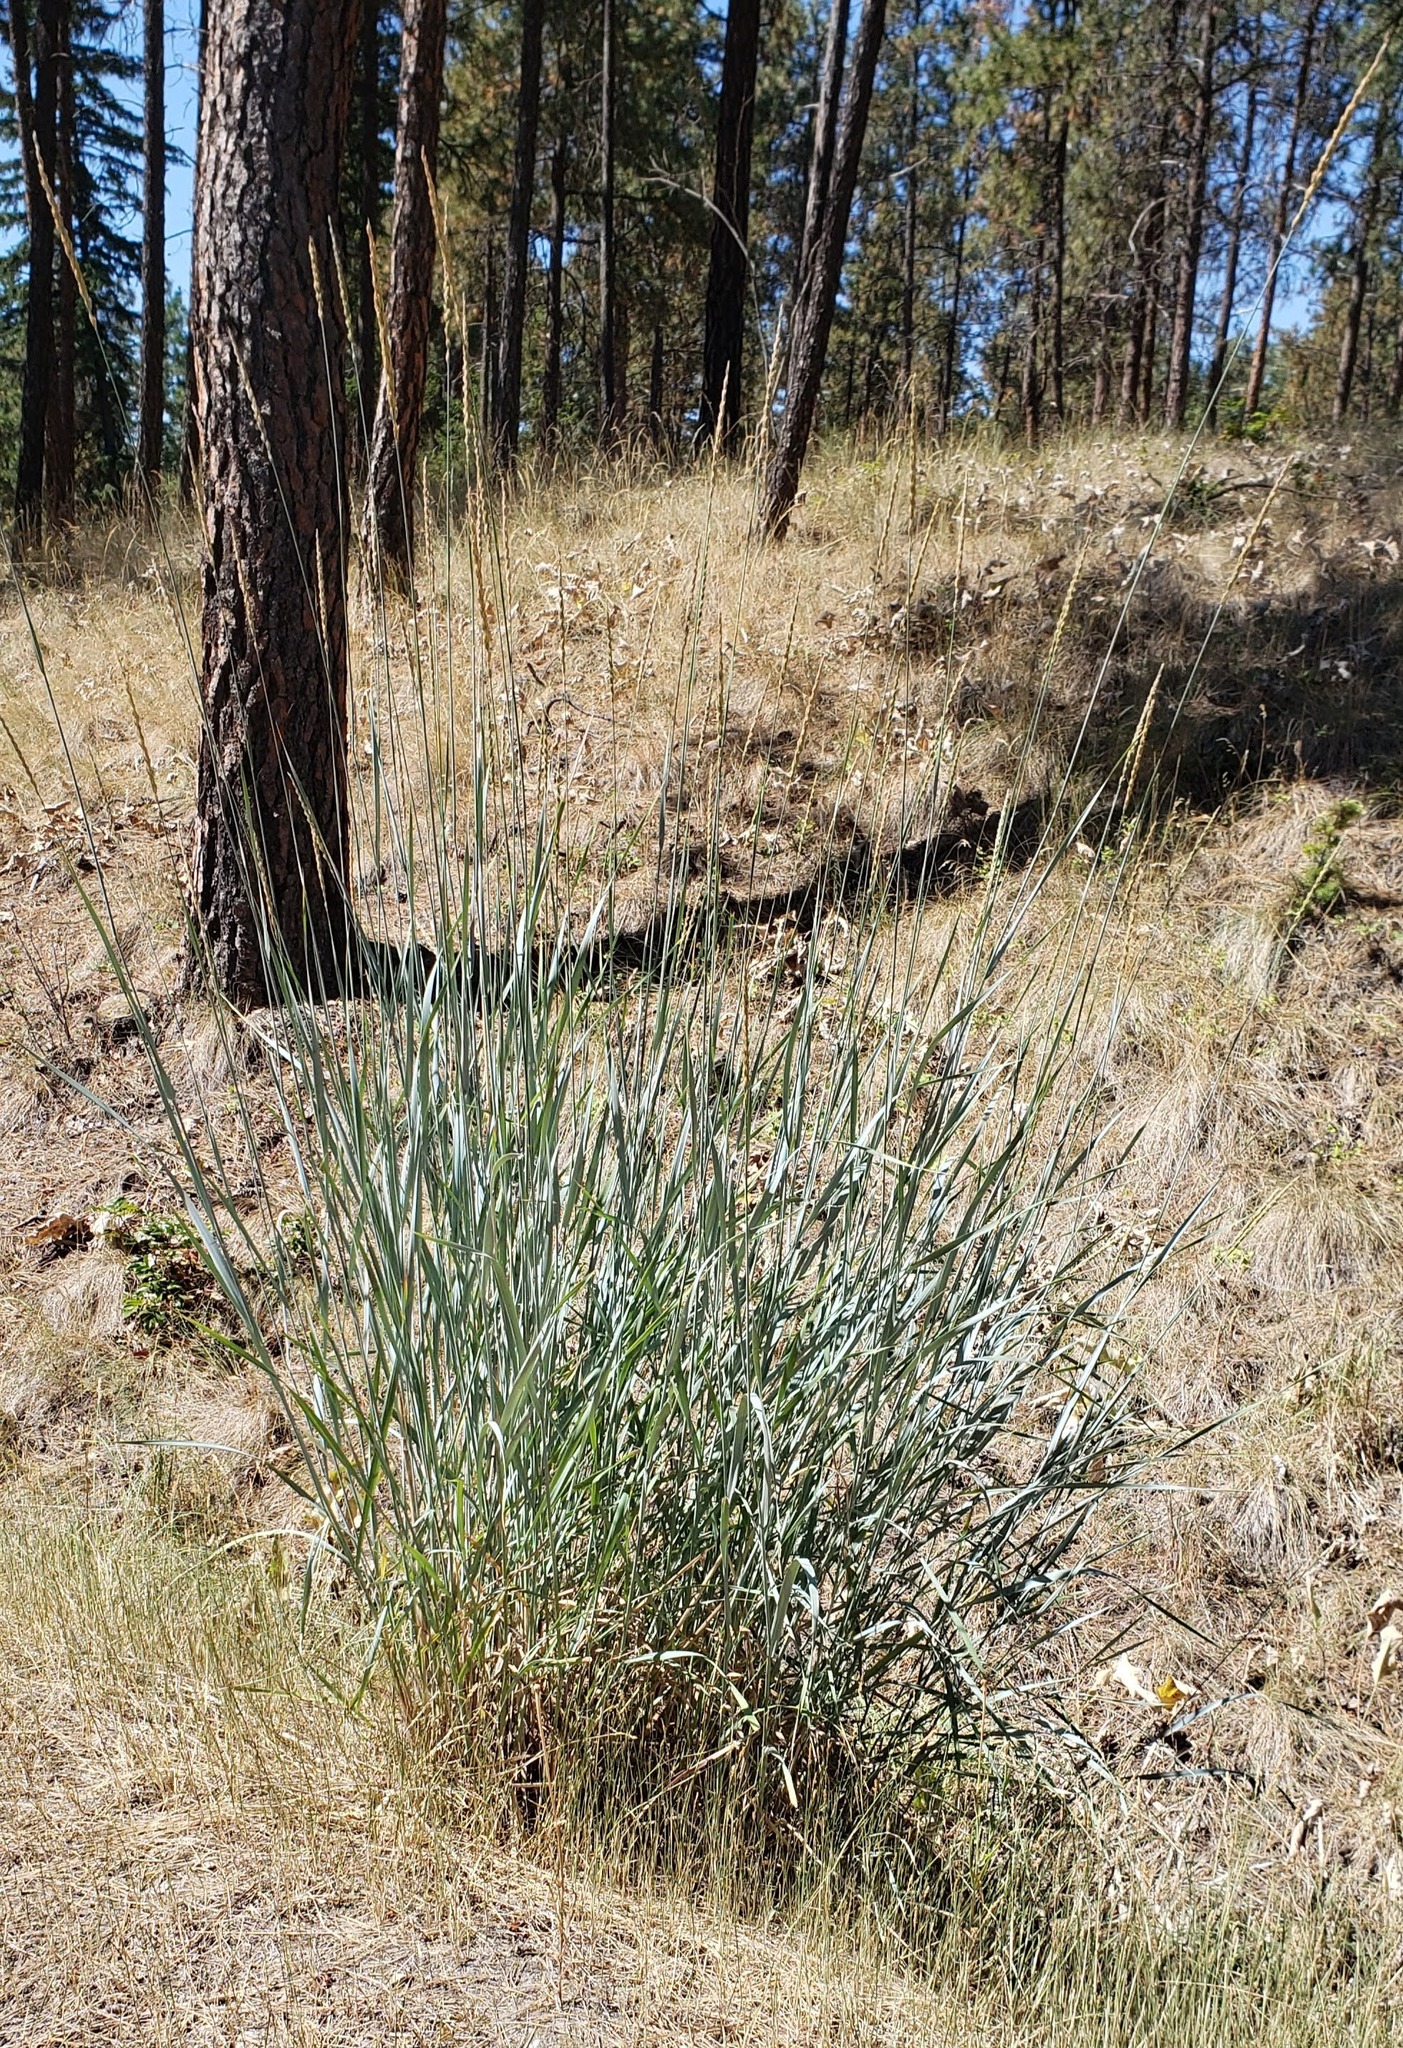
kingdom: Plantae
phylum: Tracheophyta
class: Liliopsida
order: Poales
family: Poaceae
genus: Leymus
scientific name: Leymus cinereus
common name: Basin wild rye
